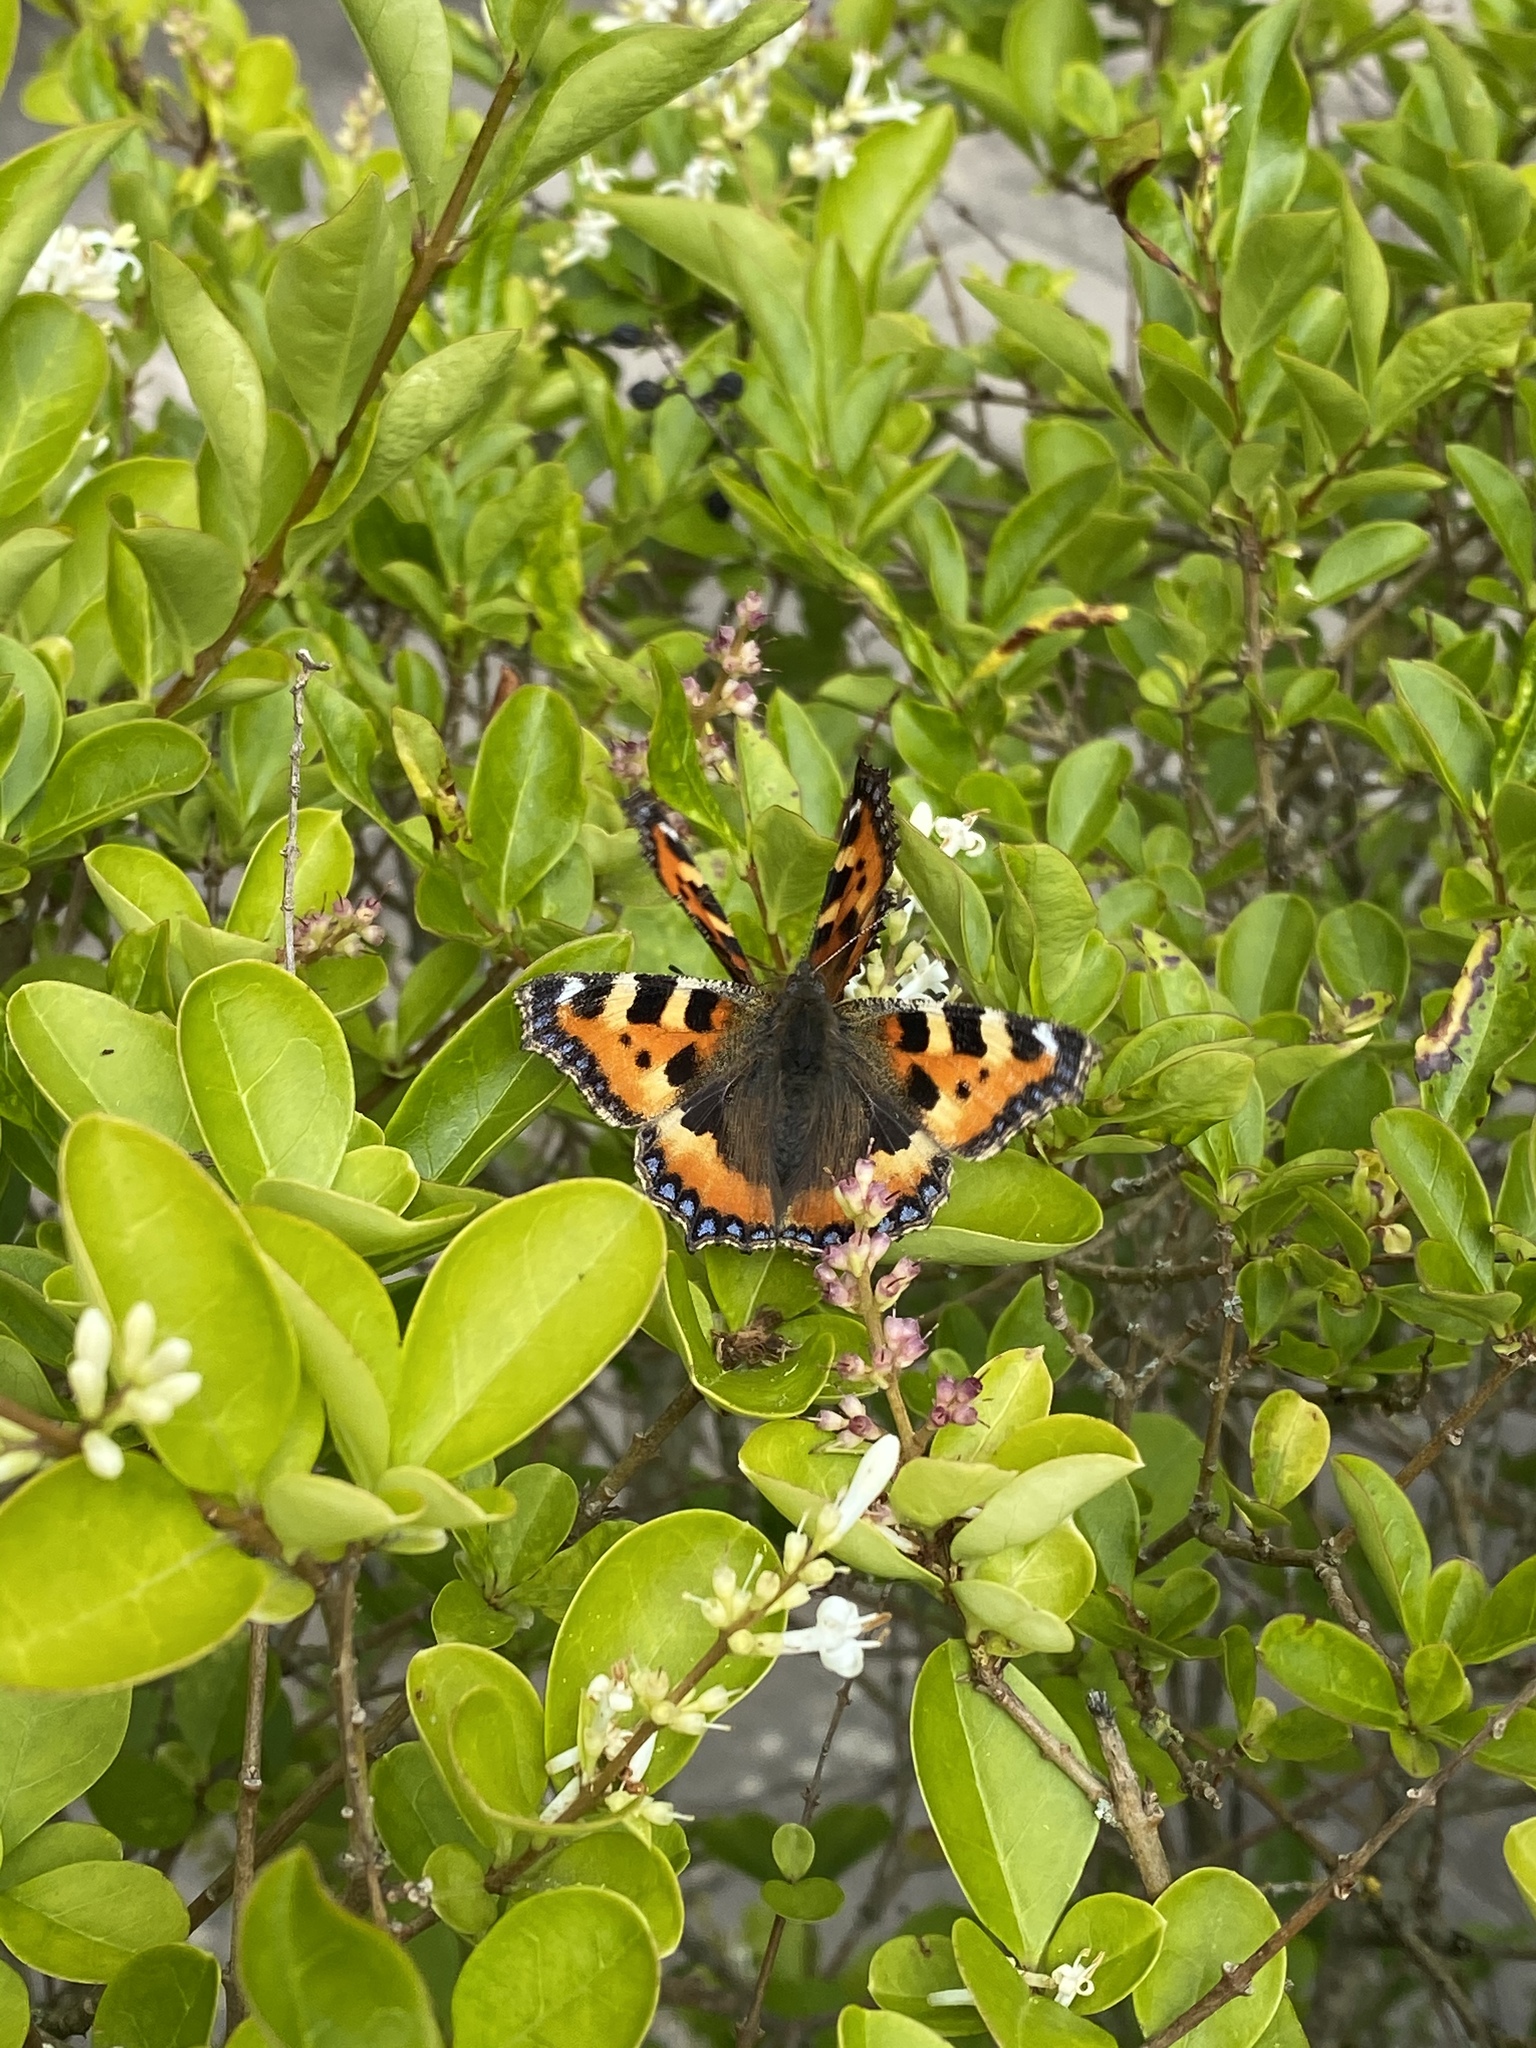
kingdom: Animalia
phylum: Arthropoda
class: Insecta
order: Lepidoptera
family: Nymphalidae
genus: Aglais
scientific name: Aglais urticae
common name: Small tortoiseshell
